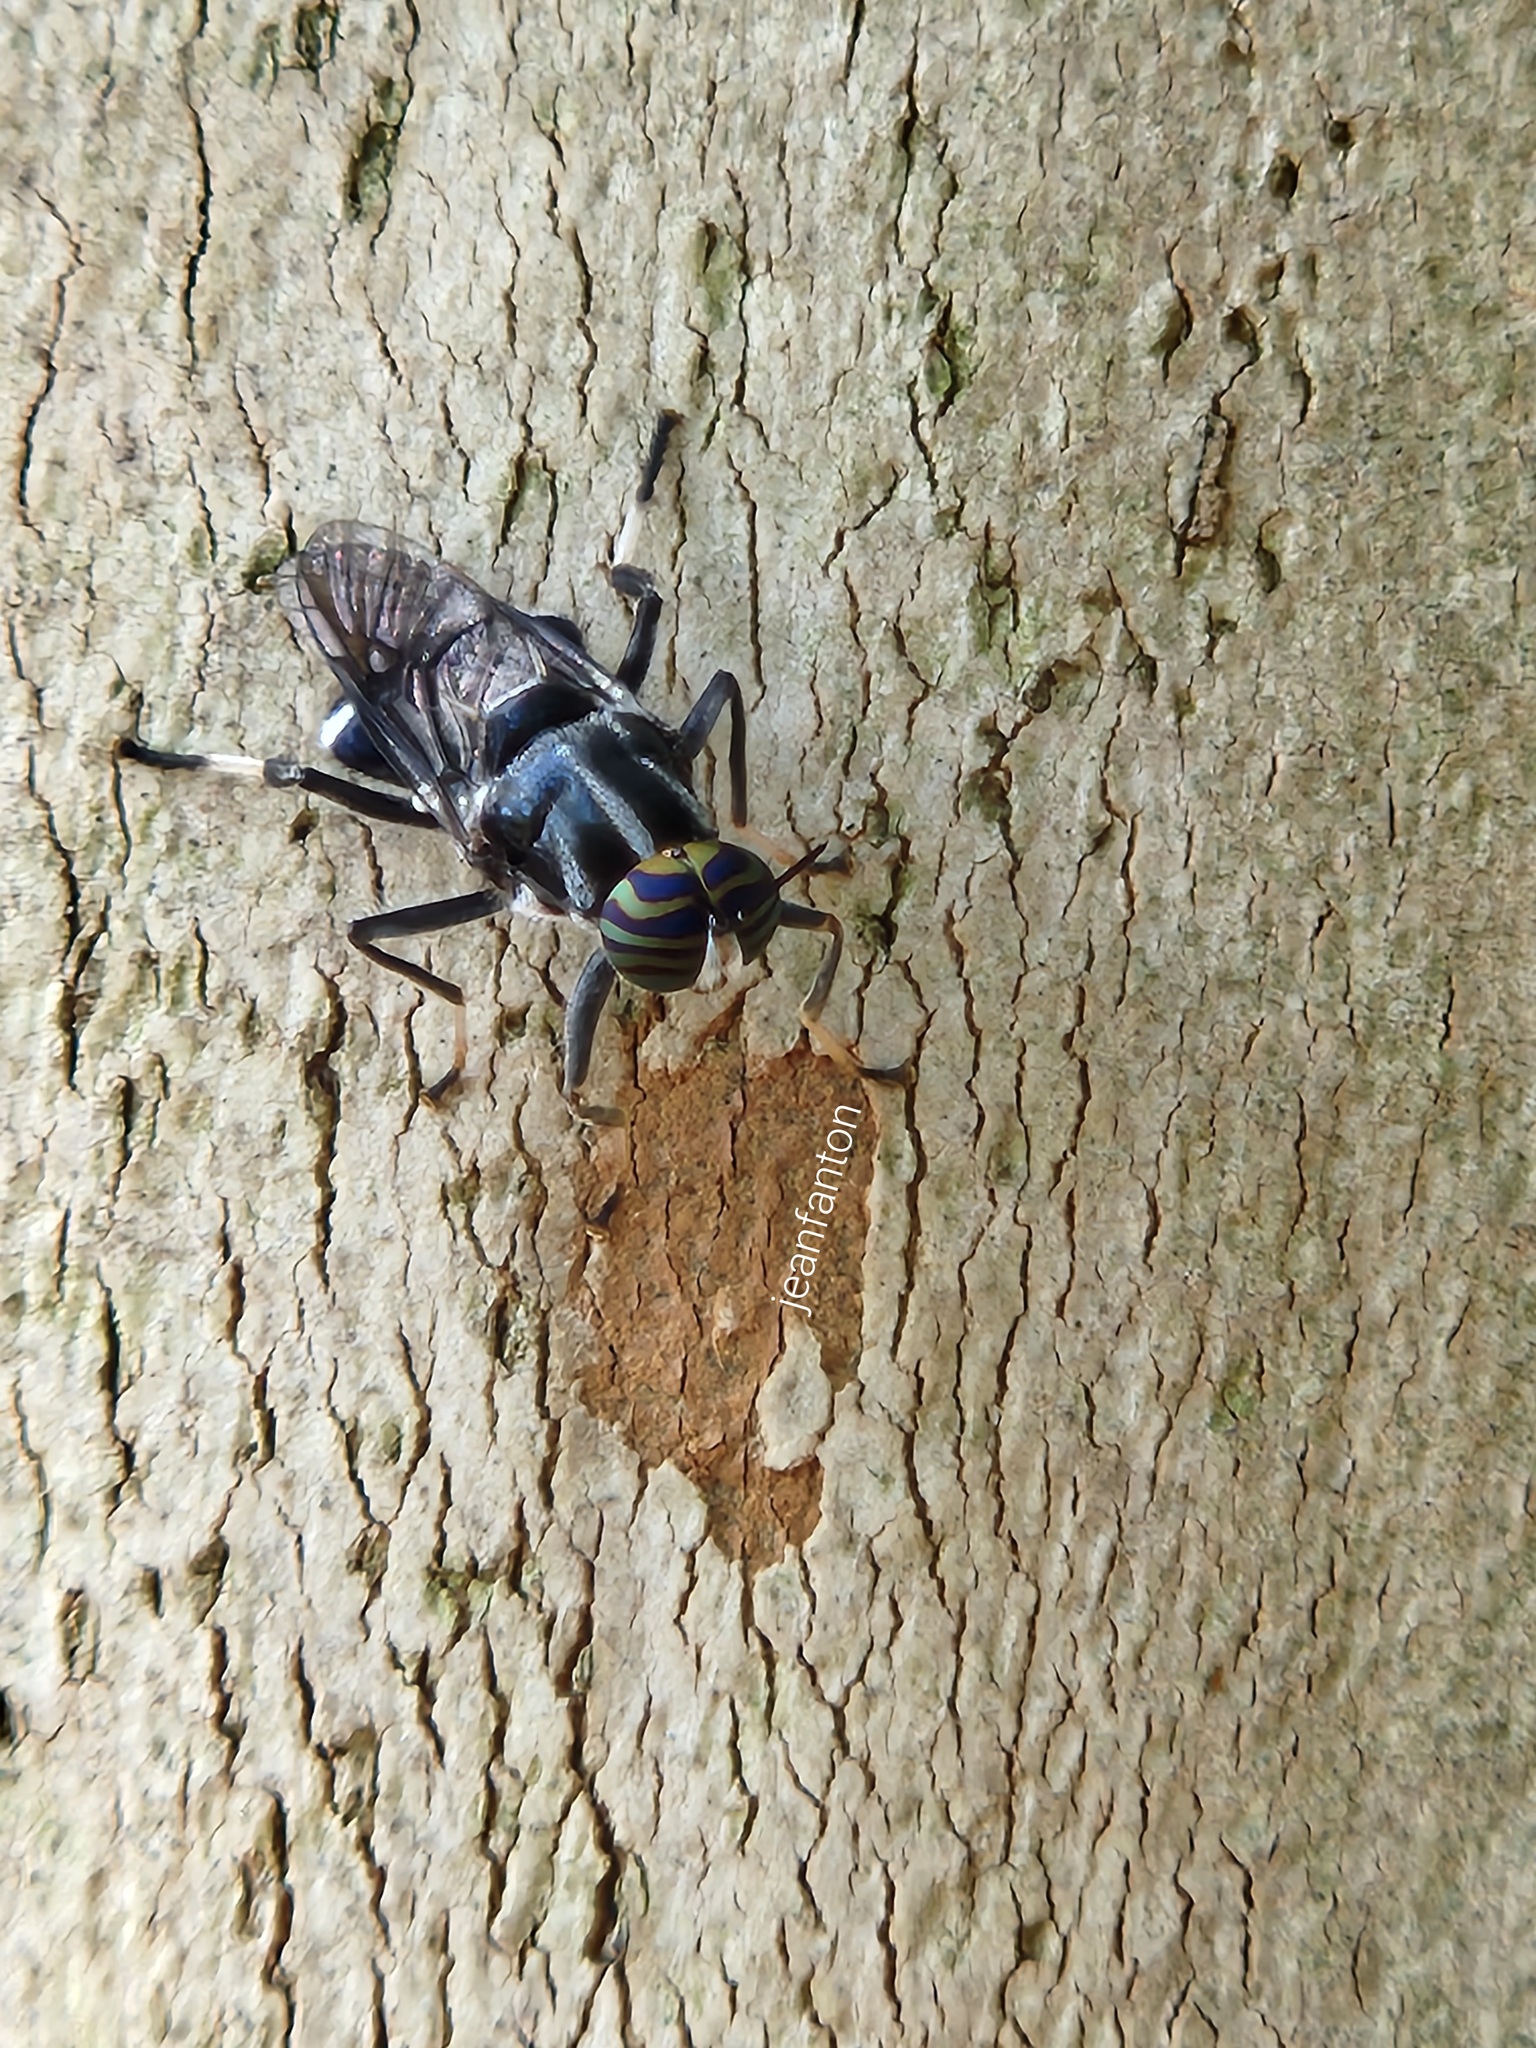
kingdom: Animalia
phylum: Arthropoda
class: Insecta
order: Diptera
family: Stratiomyidae
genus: Cyphomyia
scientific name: Cyphomyia wiedemanni
